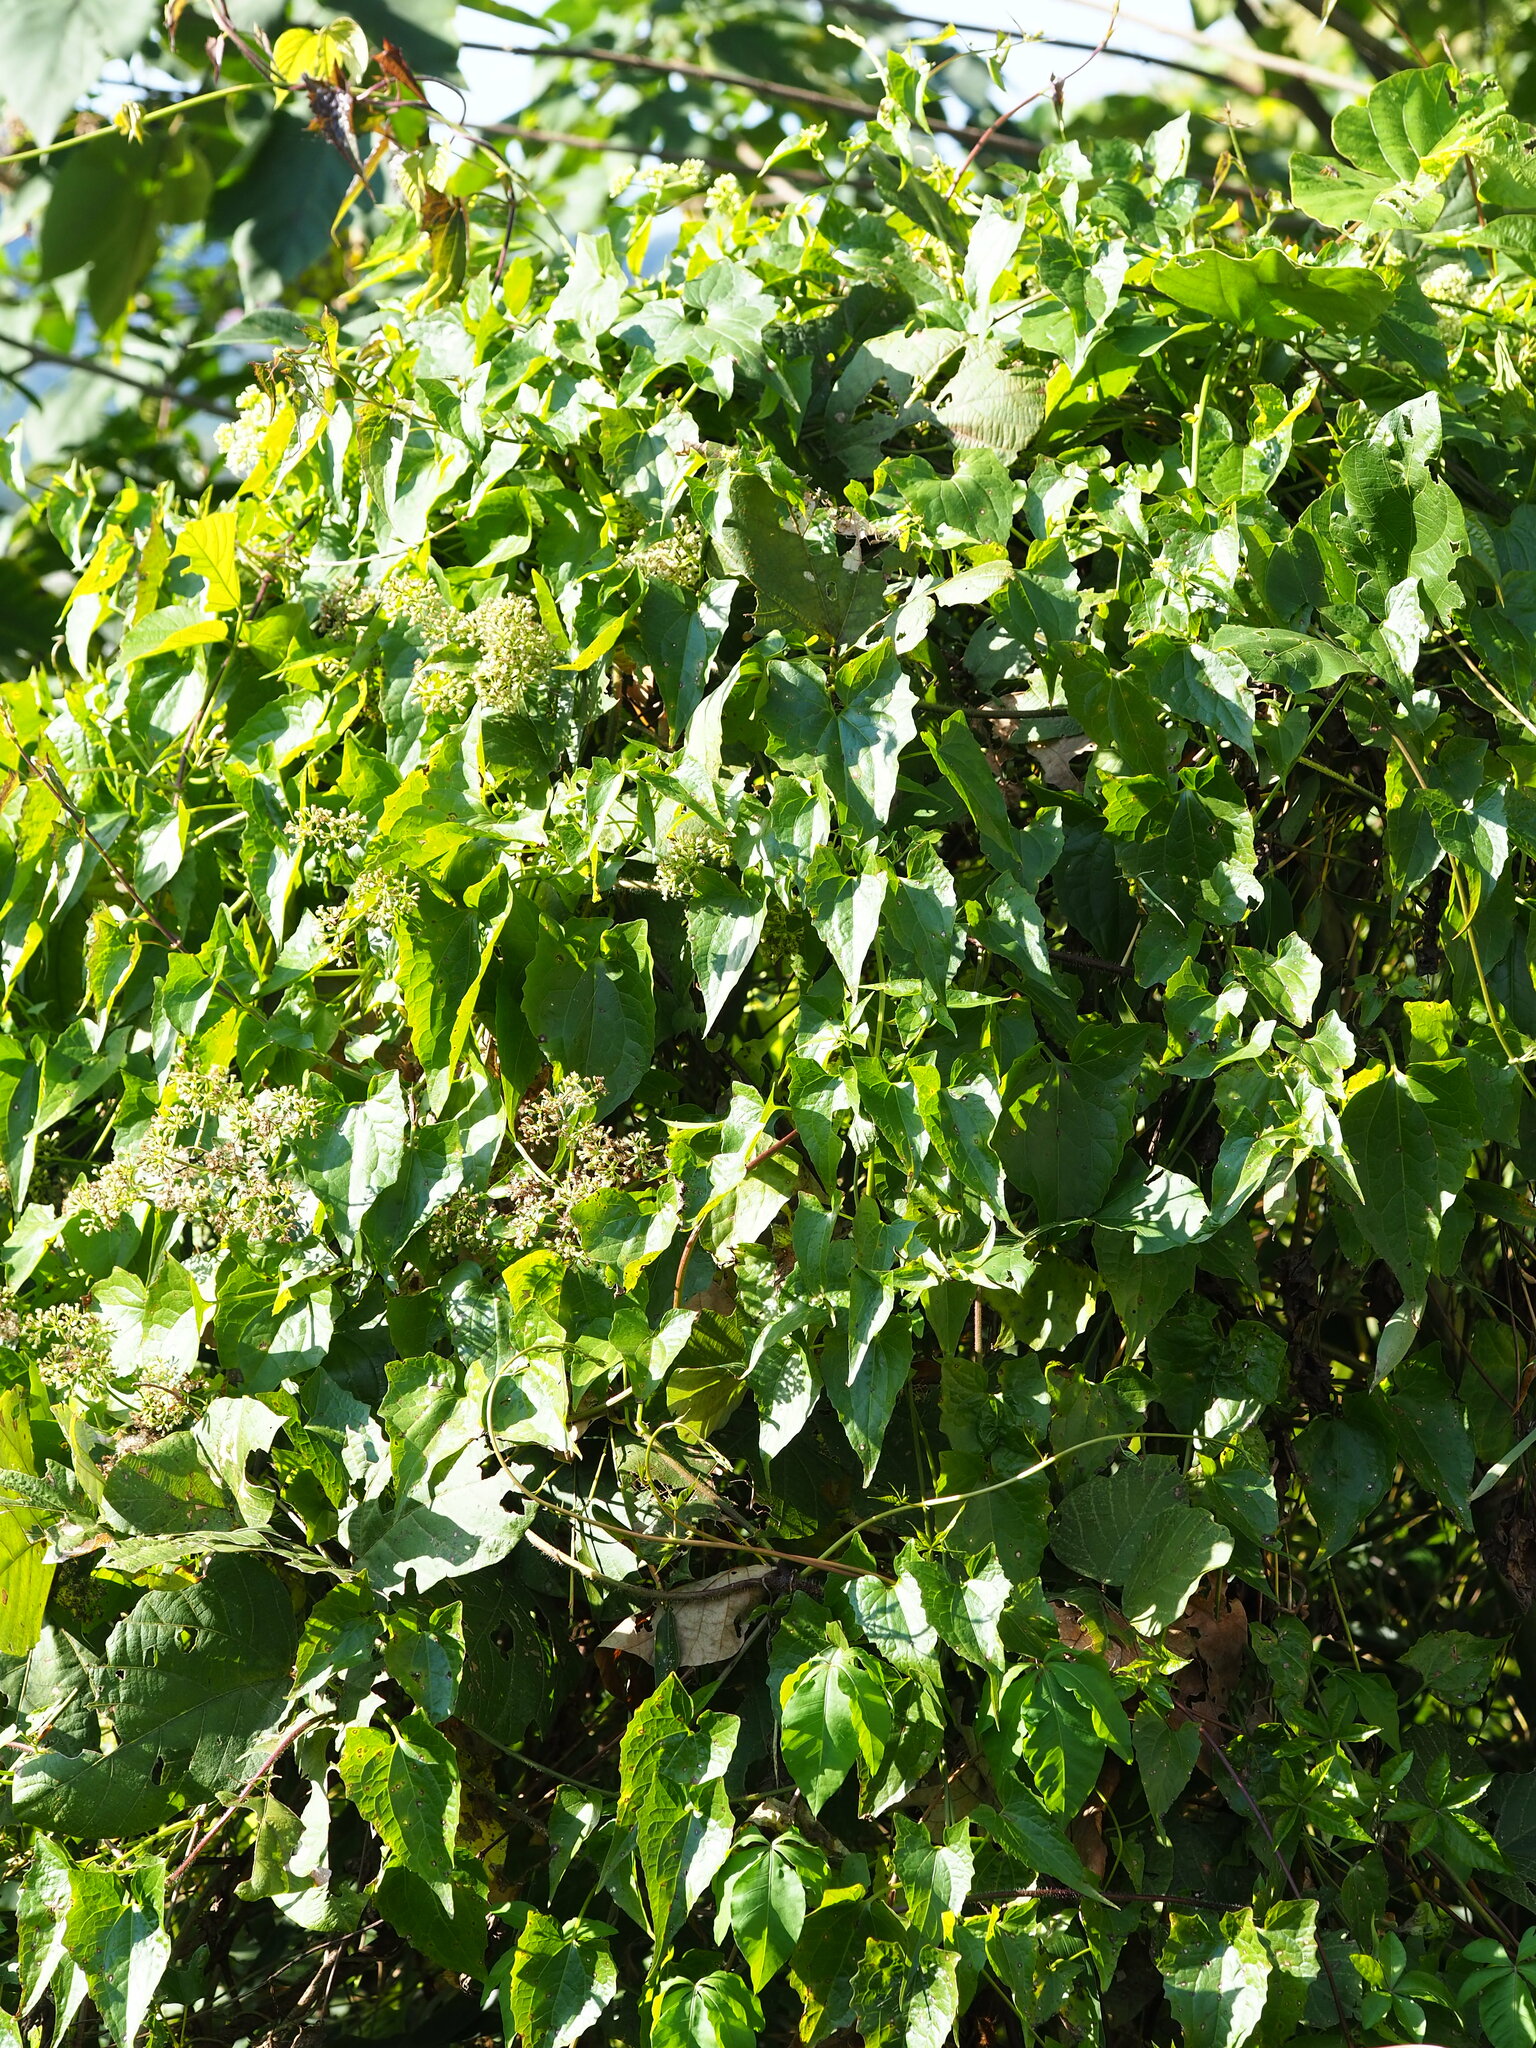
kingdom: Plantae
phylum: Tracheophyta
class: Magnoliopsida
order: Asterales
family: Asteraceae
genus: Mikania
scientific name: Mikania micrantha
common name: Mile-a-minute
